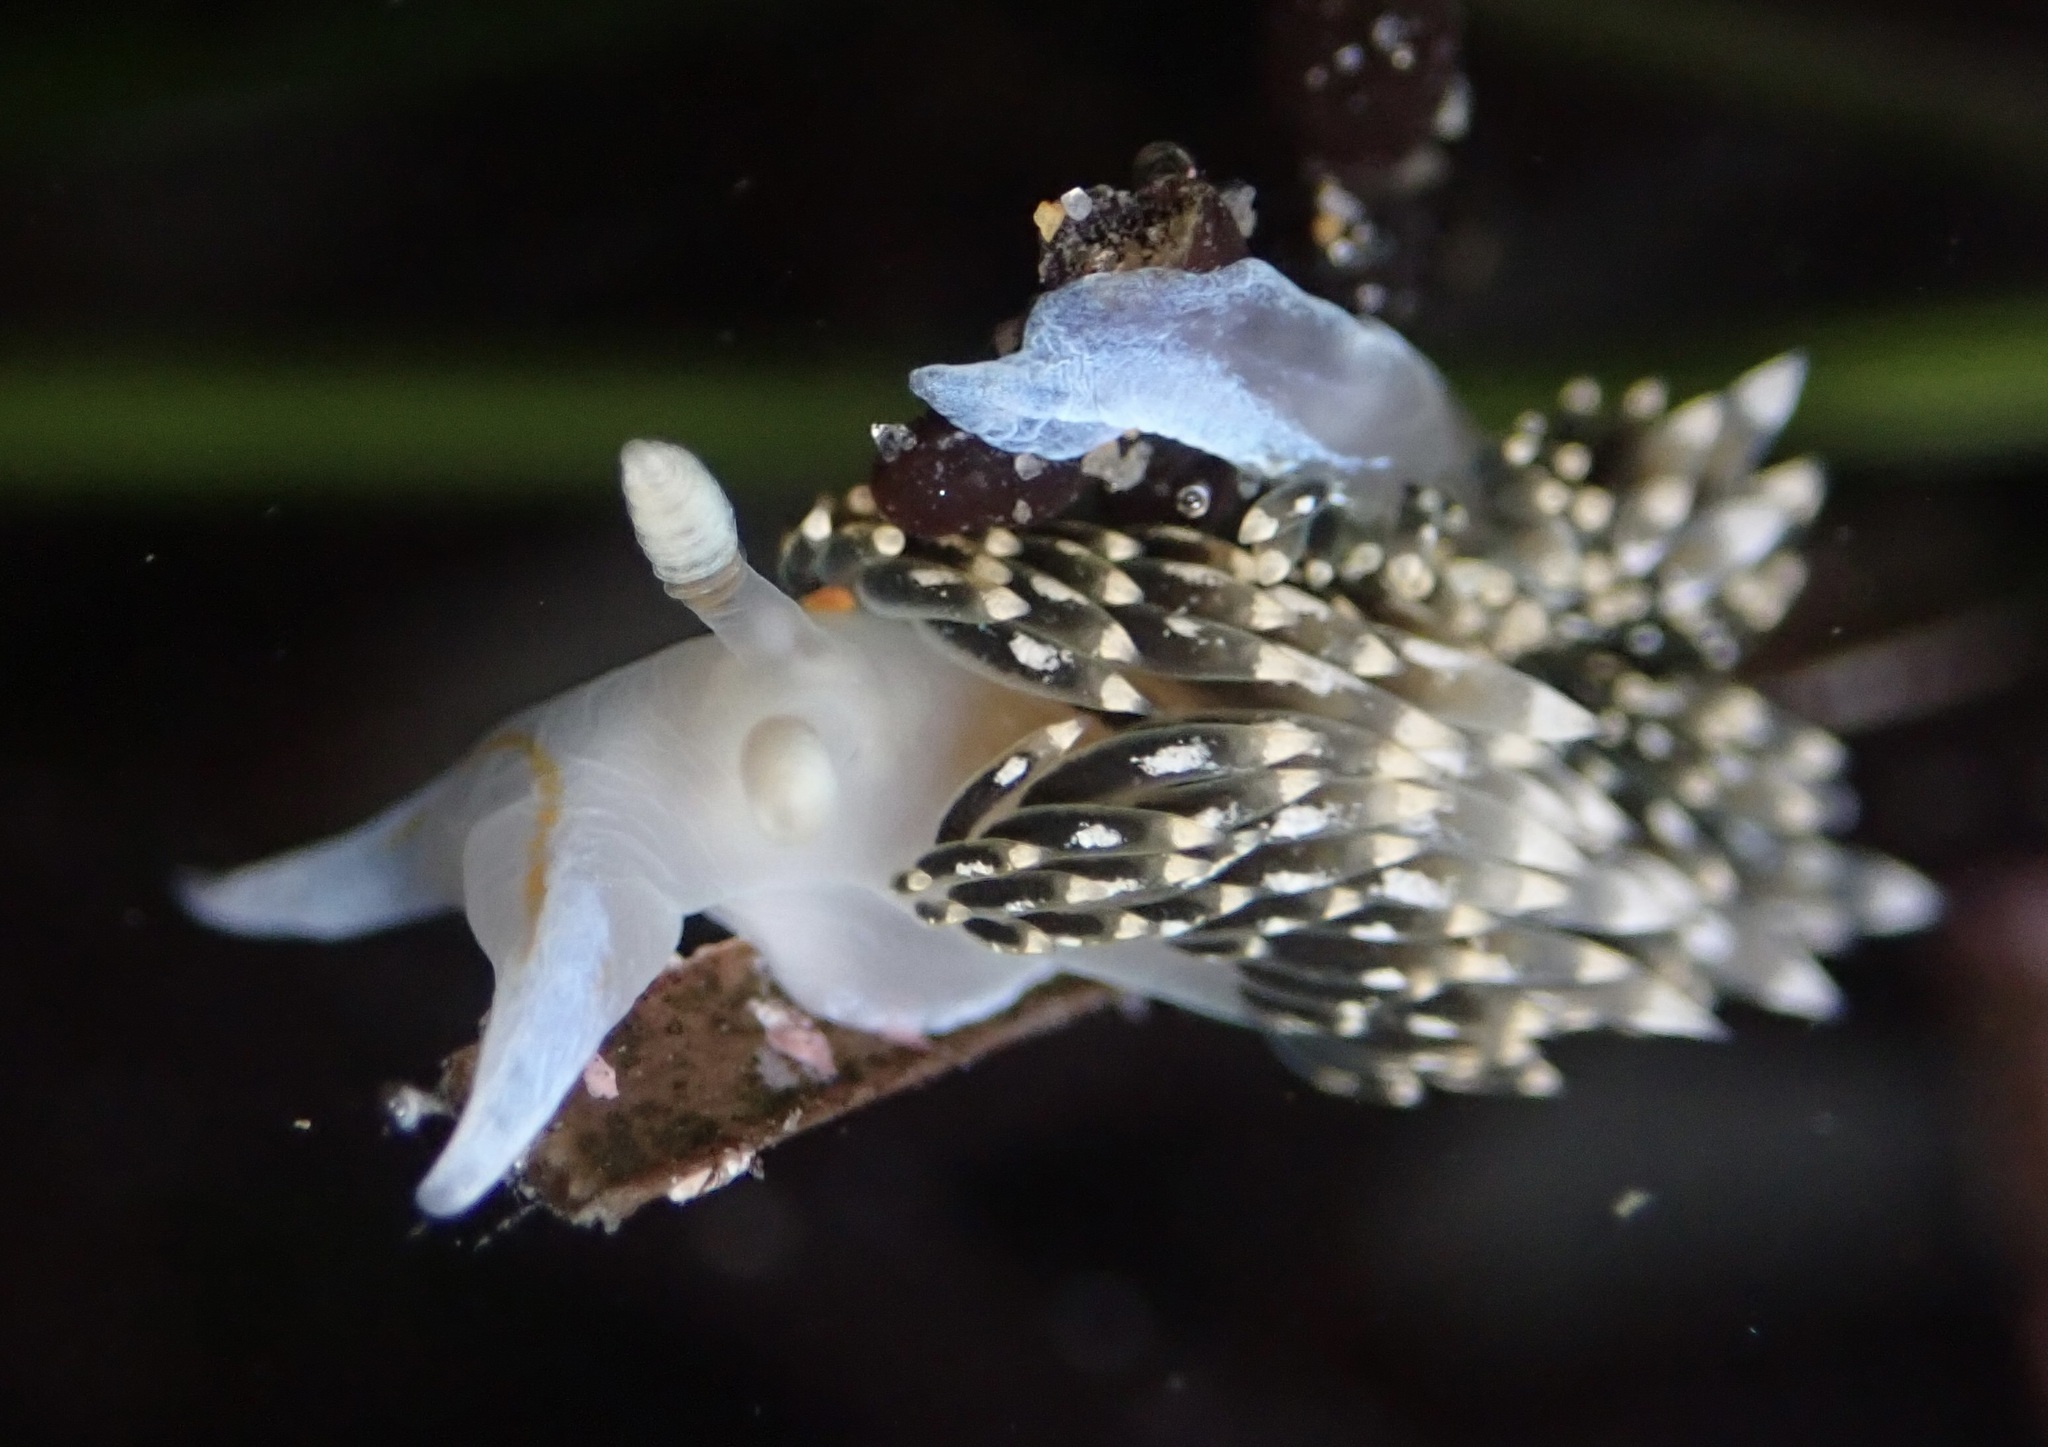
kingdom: Animalia
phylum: Mollusca
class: Gastropoda
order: Nudibranchia
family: Facelinidae
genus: Phidiana
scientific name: Phidiana hiltoni
